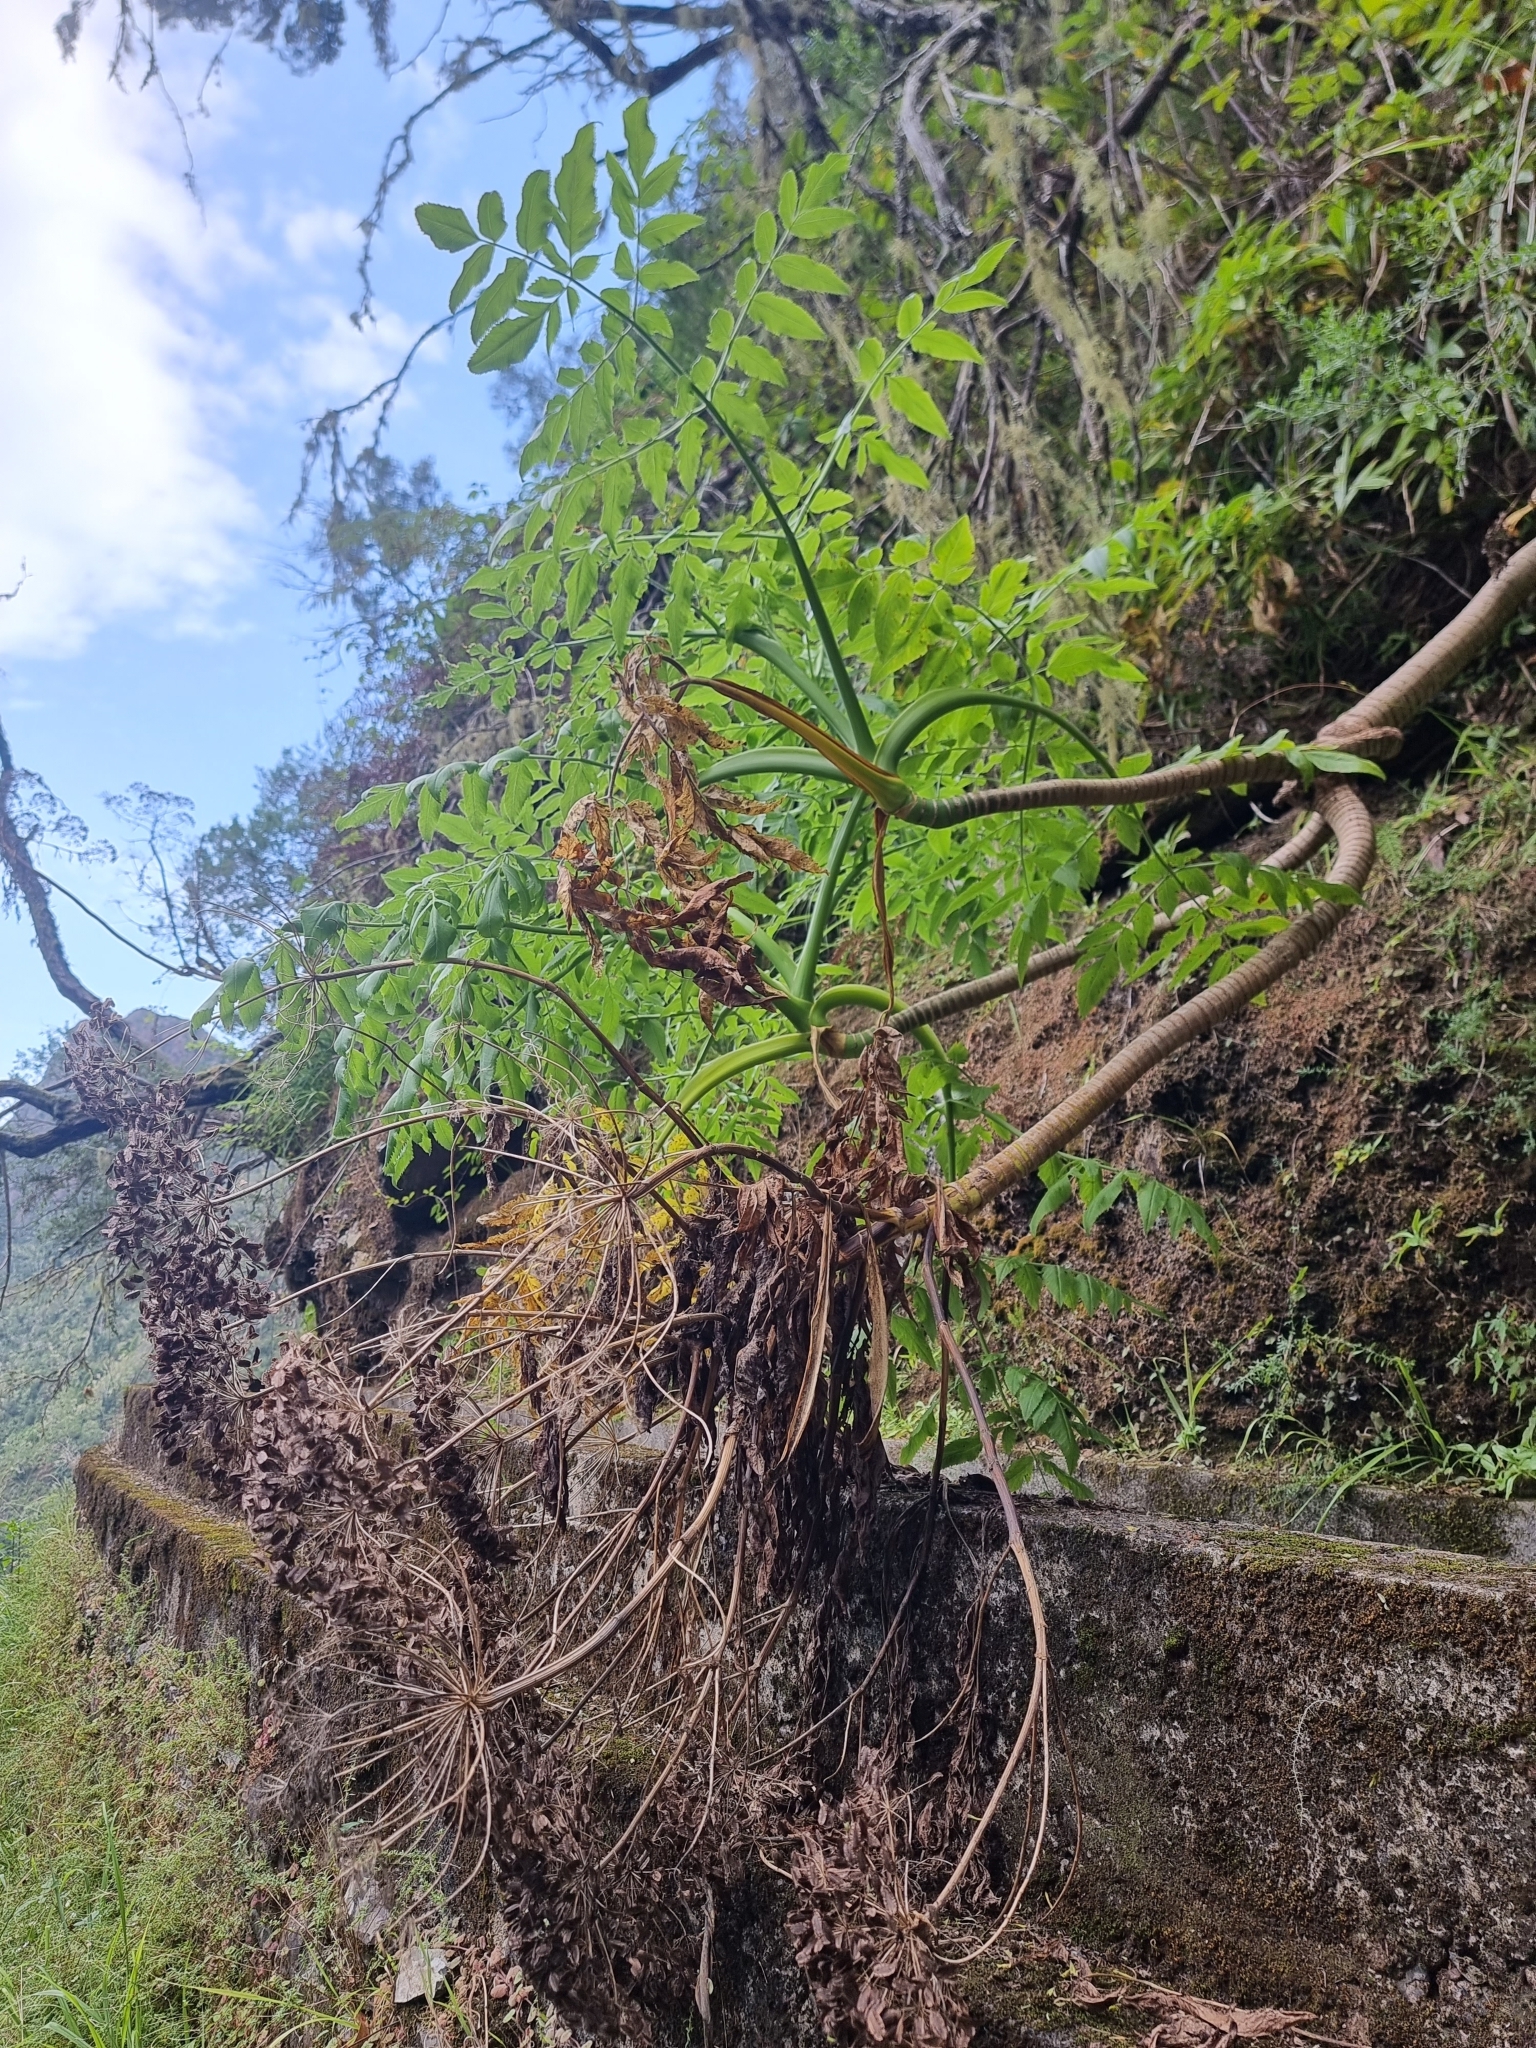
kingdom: Plantae
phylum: Tracheophyta
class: Magnoliopsida
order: Apiales
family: Apiaceae
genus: Daucus
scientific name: Daucus decipiens
